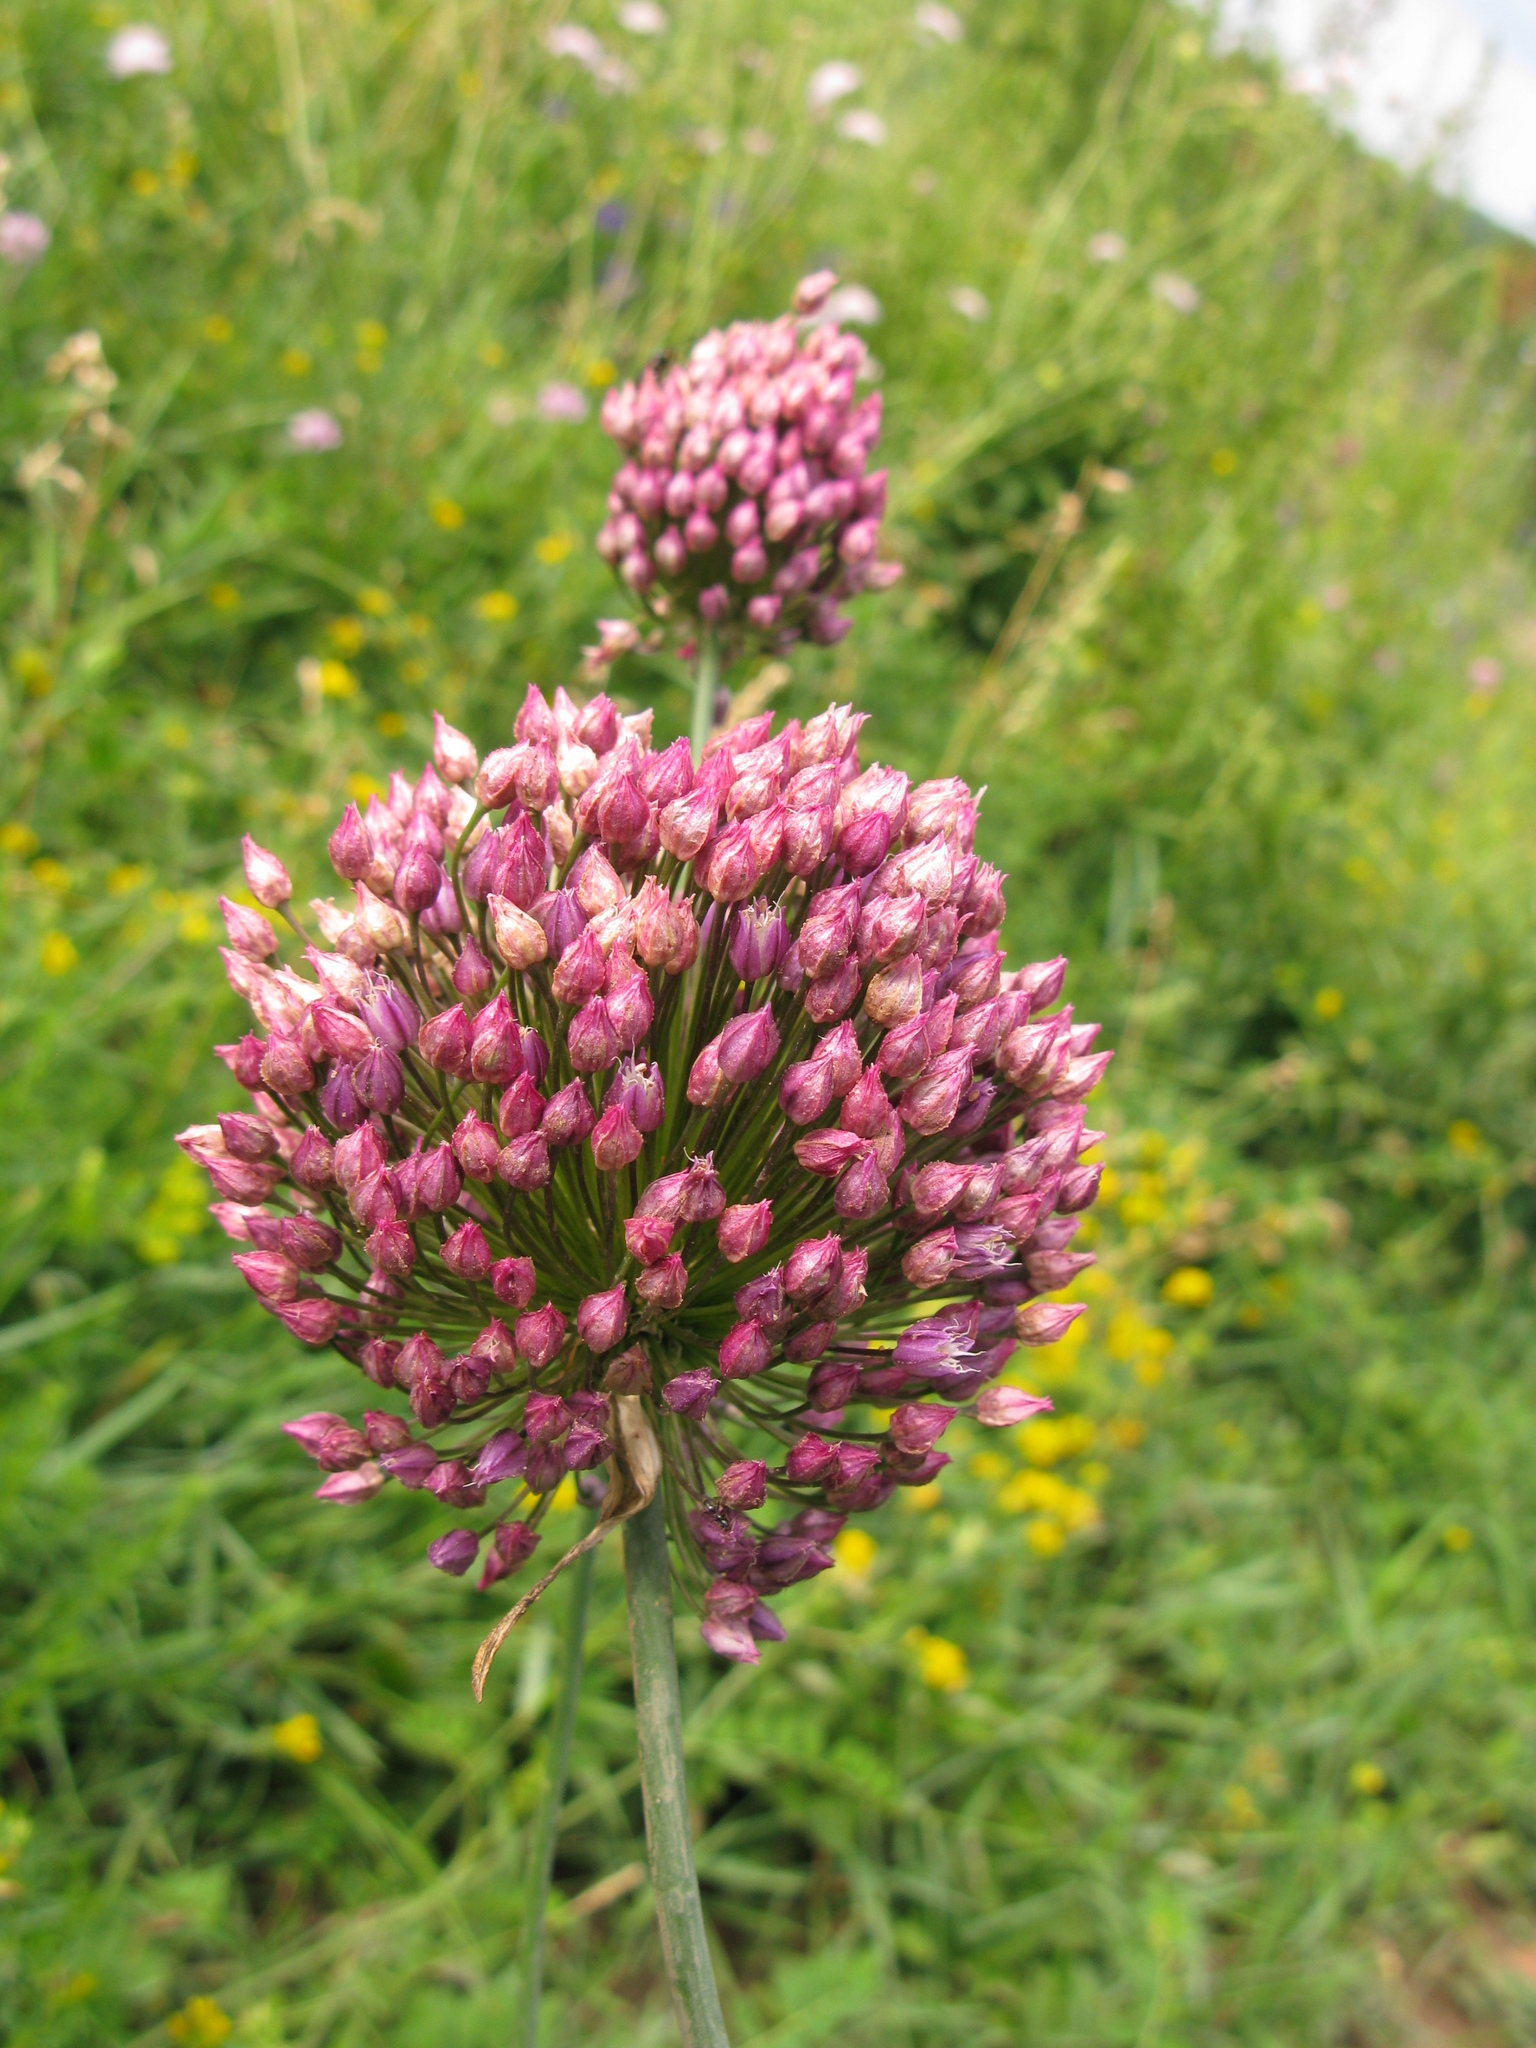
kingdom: Plantae
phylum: Tracheophyta
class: Liliopsida
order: Asparagales
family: Amaryllidaceae
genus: Allium
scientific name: Allium rotundum
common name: Sand leek
